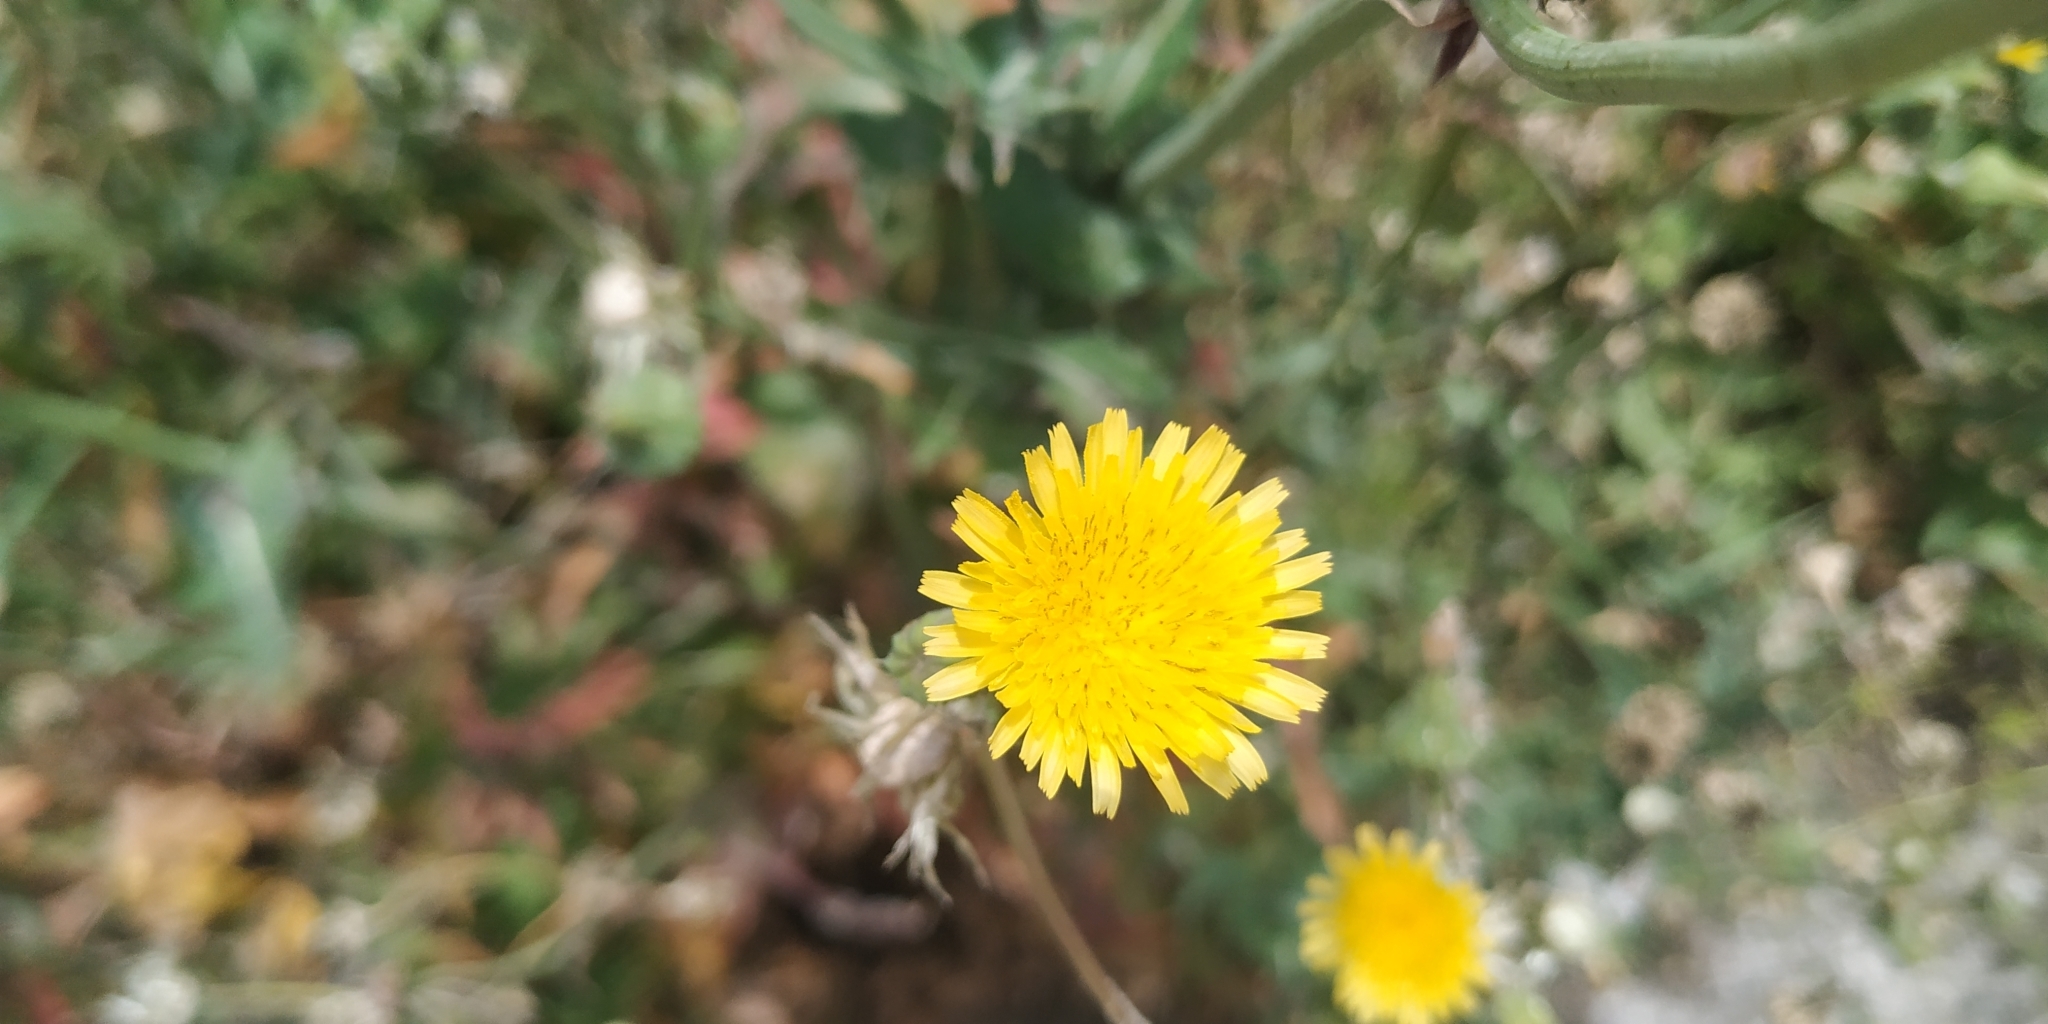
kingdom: Plantae
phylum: Tracheophyta
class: Magnoliopsida
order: Asterales
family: Asteraceae
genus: Sonchus
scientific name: Sonchus asper
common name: Prickly sow-thistle
